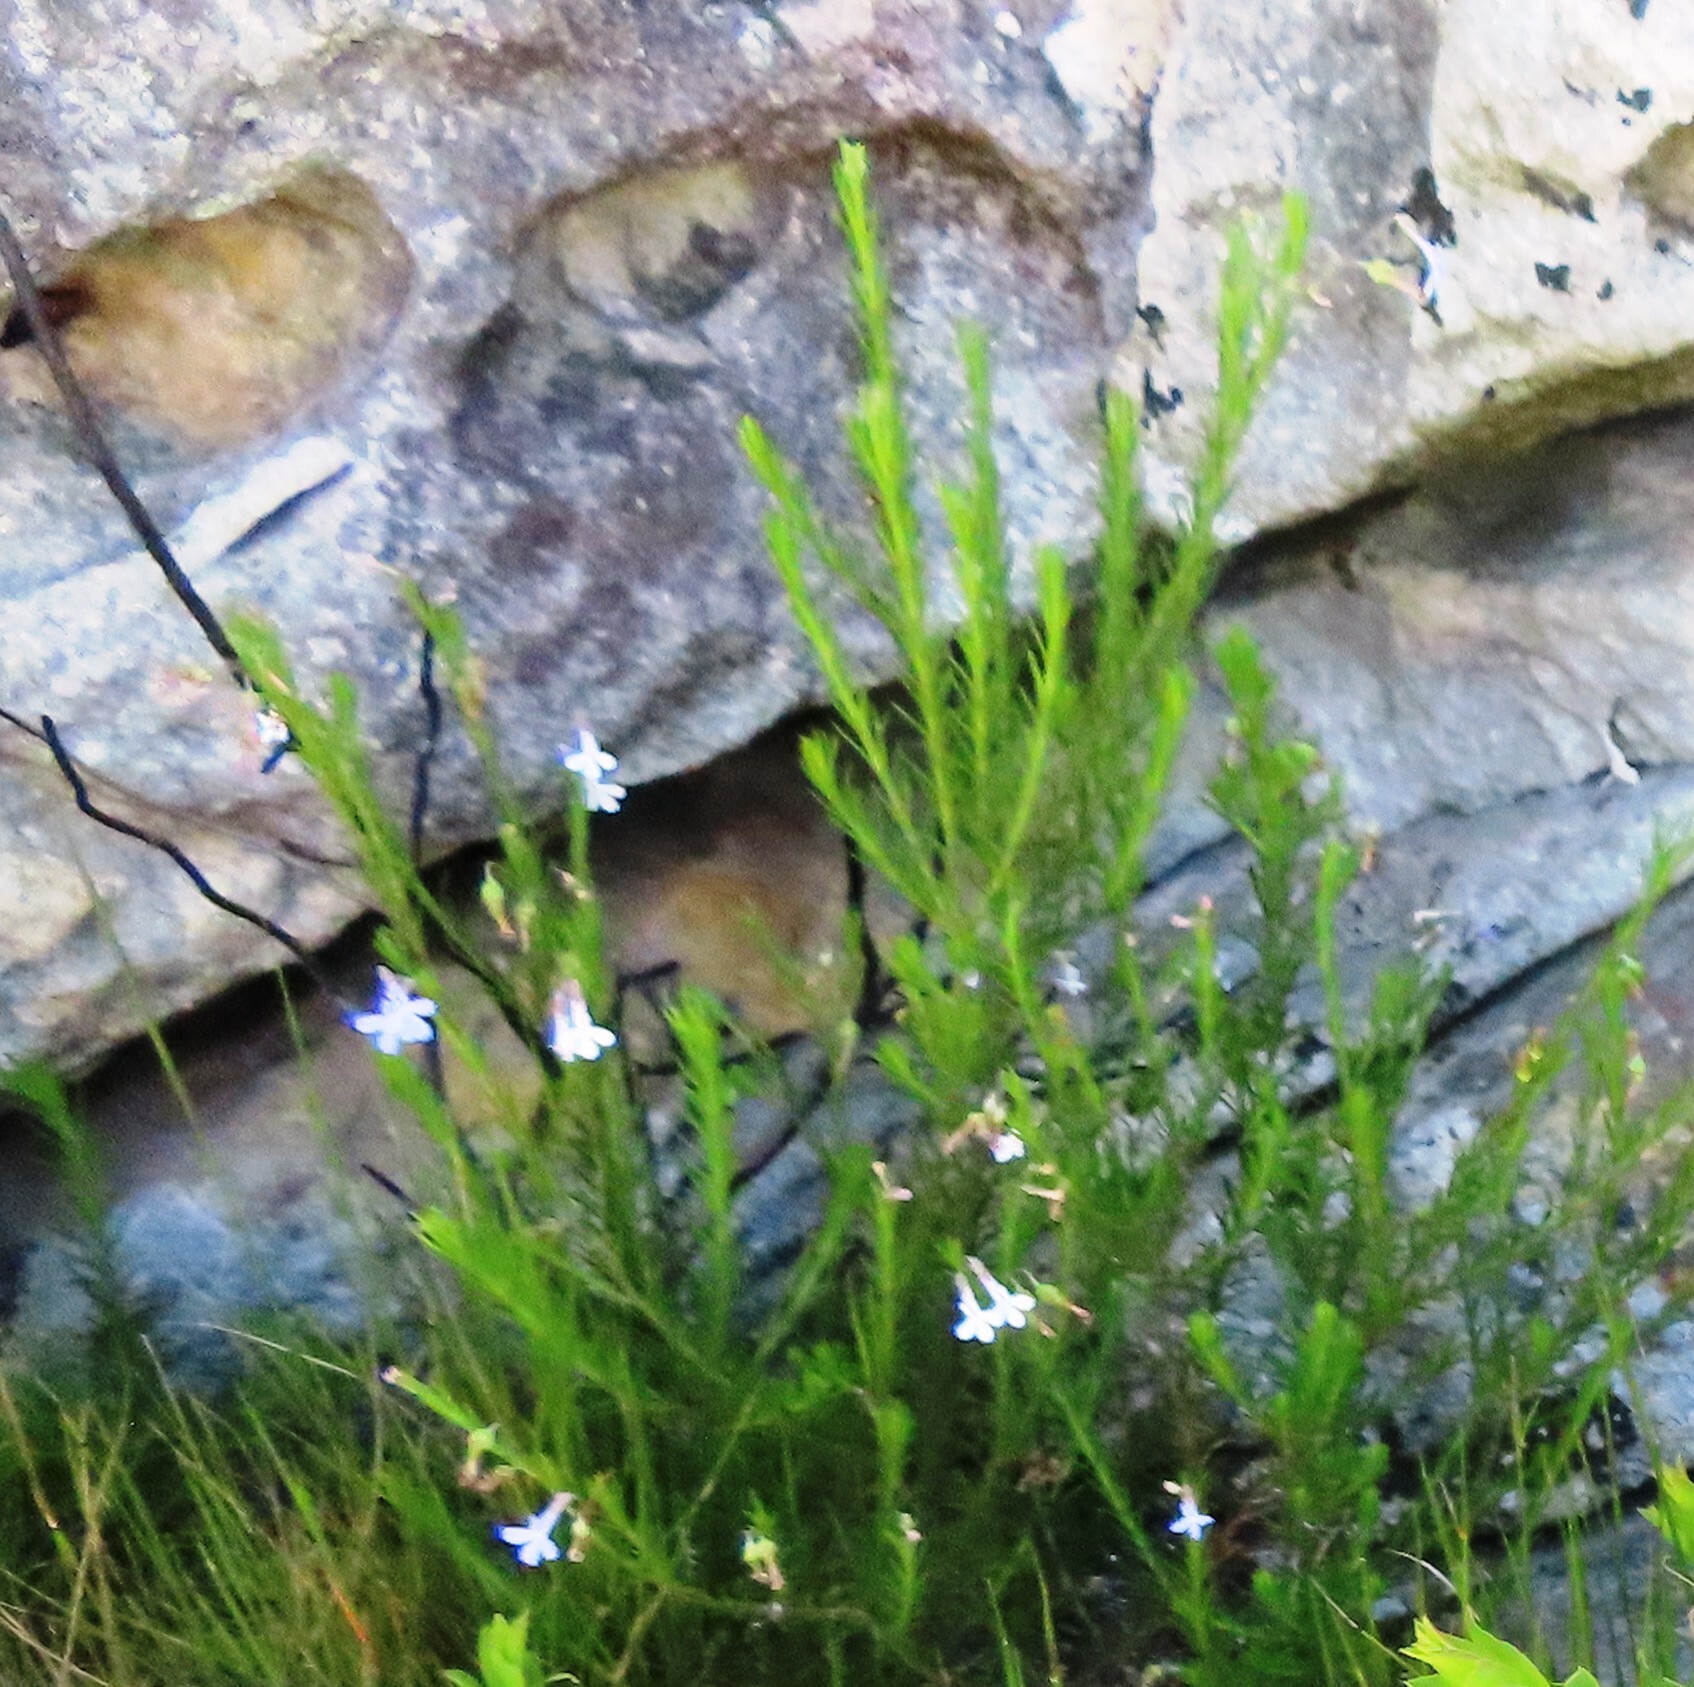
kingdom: Plantae
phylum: Tracheophyta
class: Magnoliopsida
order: Asterales
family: Campanulaceae
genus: Lobelia
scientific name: Lobelia pinifolia
